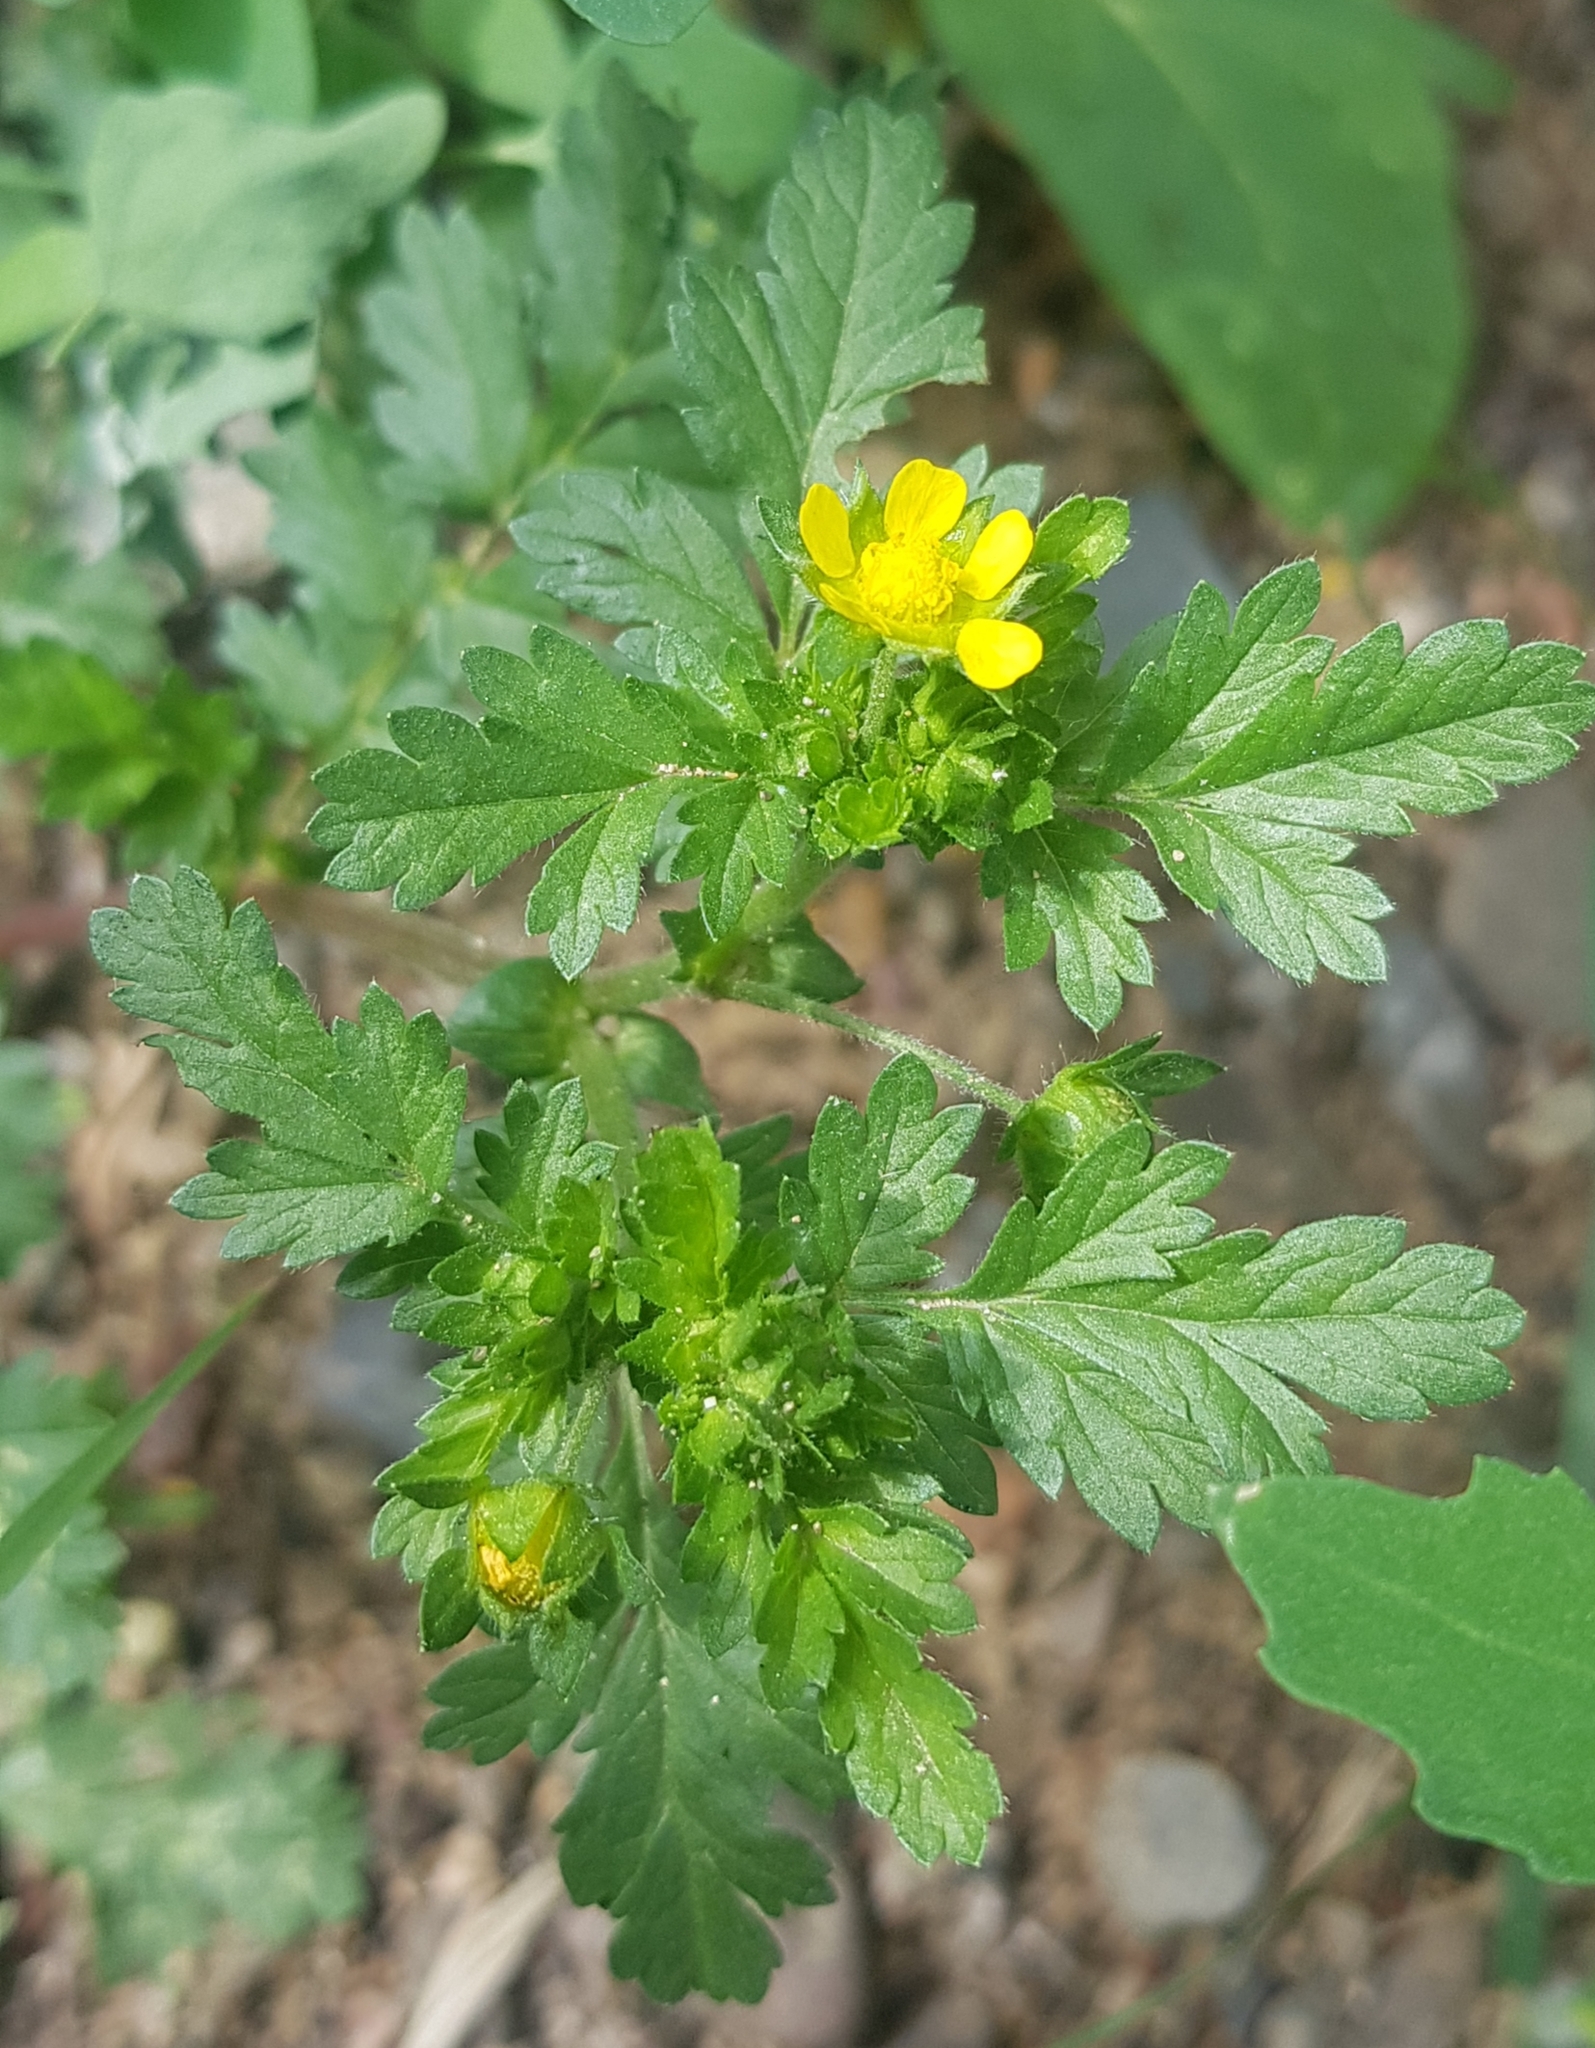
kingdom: Plantae
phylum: Tracheophyta
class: Magnoliopsida
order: Rosales
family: Rosaceae
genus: Potentilla
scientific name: Potentilla supina
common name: Prostrate cinquefoil
